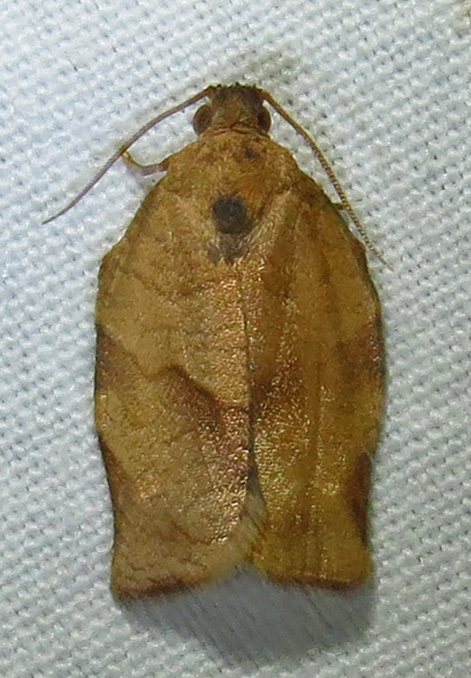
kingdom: Animalia
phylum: Arthropoda
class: Insecta
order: Lepidoptera
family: Tortricidae
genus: Choristoneura
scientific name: Choristoneura rosaceana
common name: Oblique-banded leafroller moth
